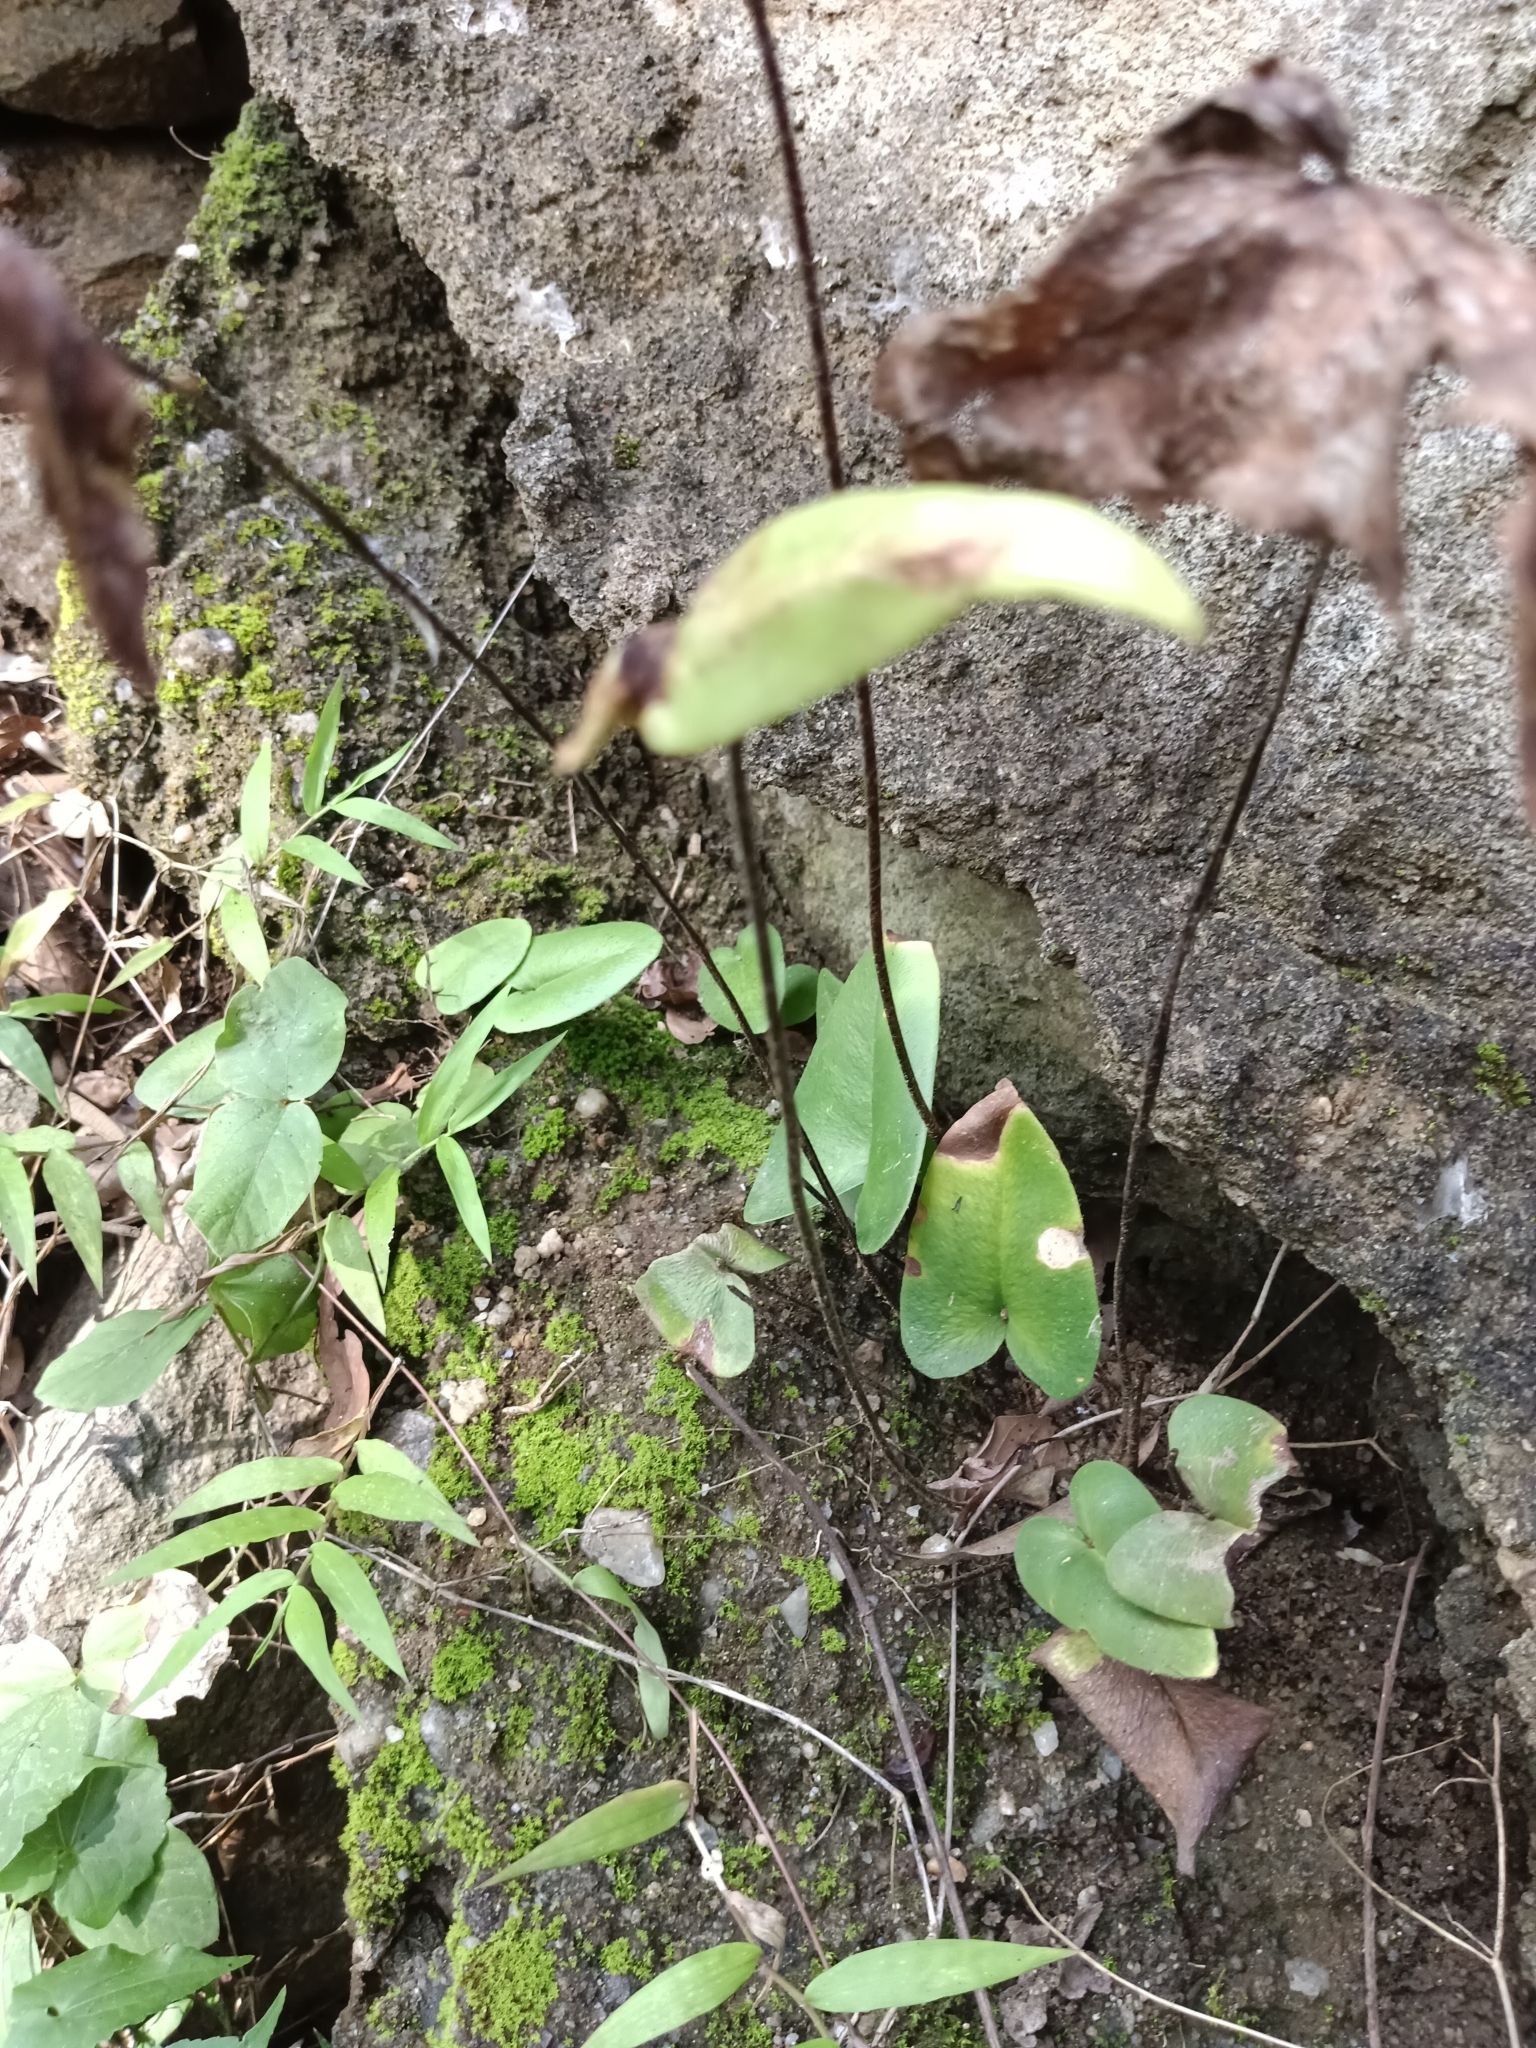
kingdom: Plantae
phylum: Tracheophyta
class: Polypodiopsida
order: Polypodiales
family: Pteridaceae
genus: Mickelopteris
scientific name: Mickelopteris cordata
